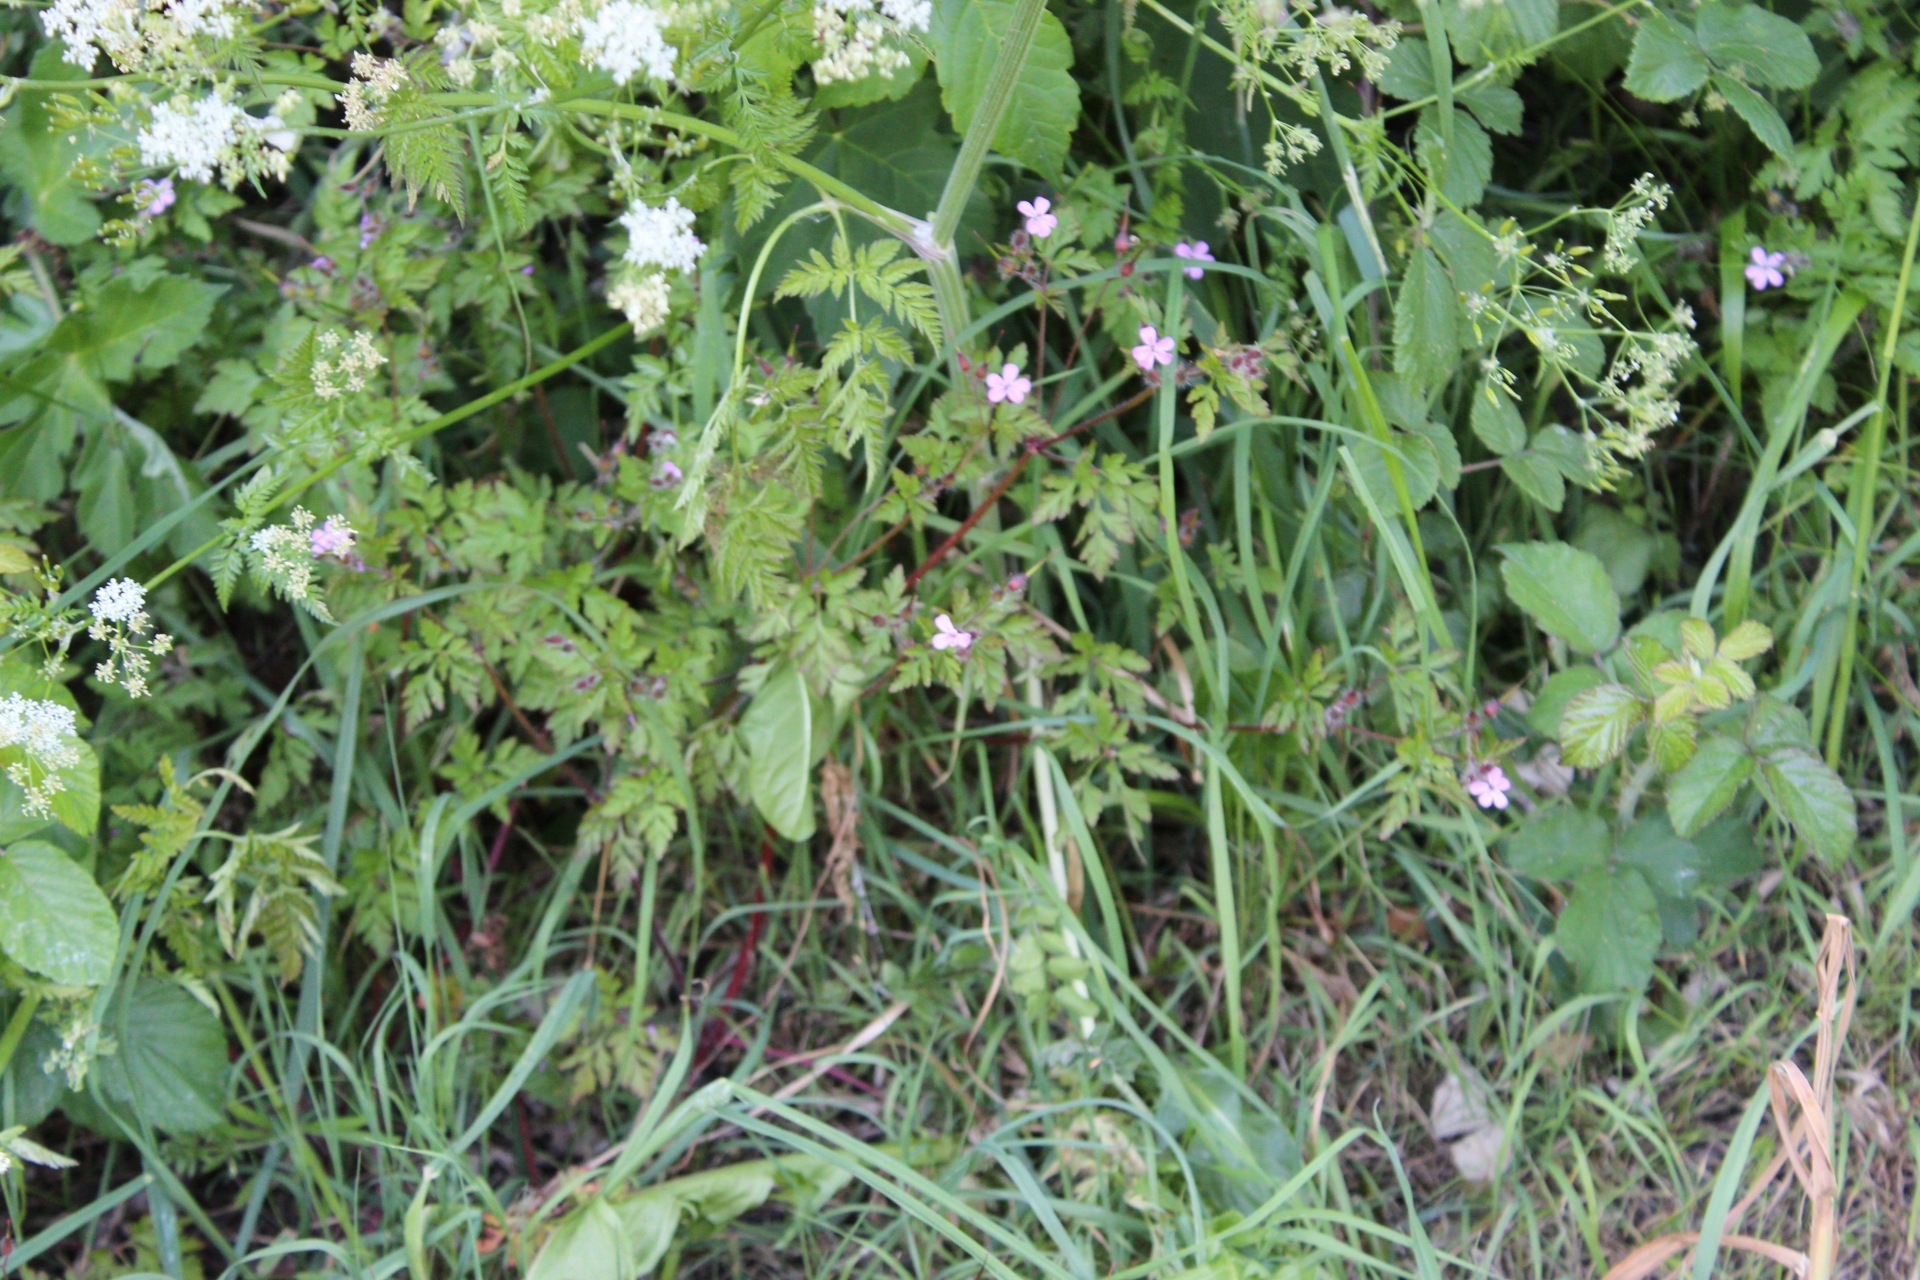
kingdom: Plantae
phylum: Tracheophyta
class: Magnoliopsida
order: Geraniales
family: Geraniaceae
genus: Geranium
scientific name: Geranium robertianum
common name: Herb-robert
